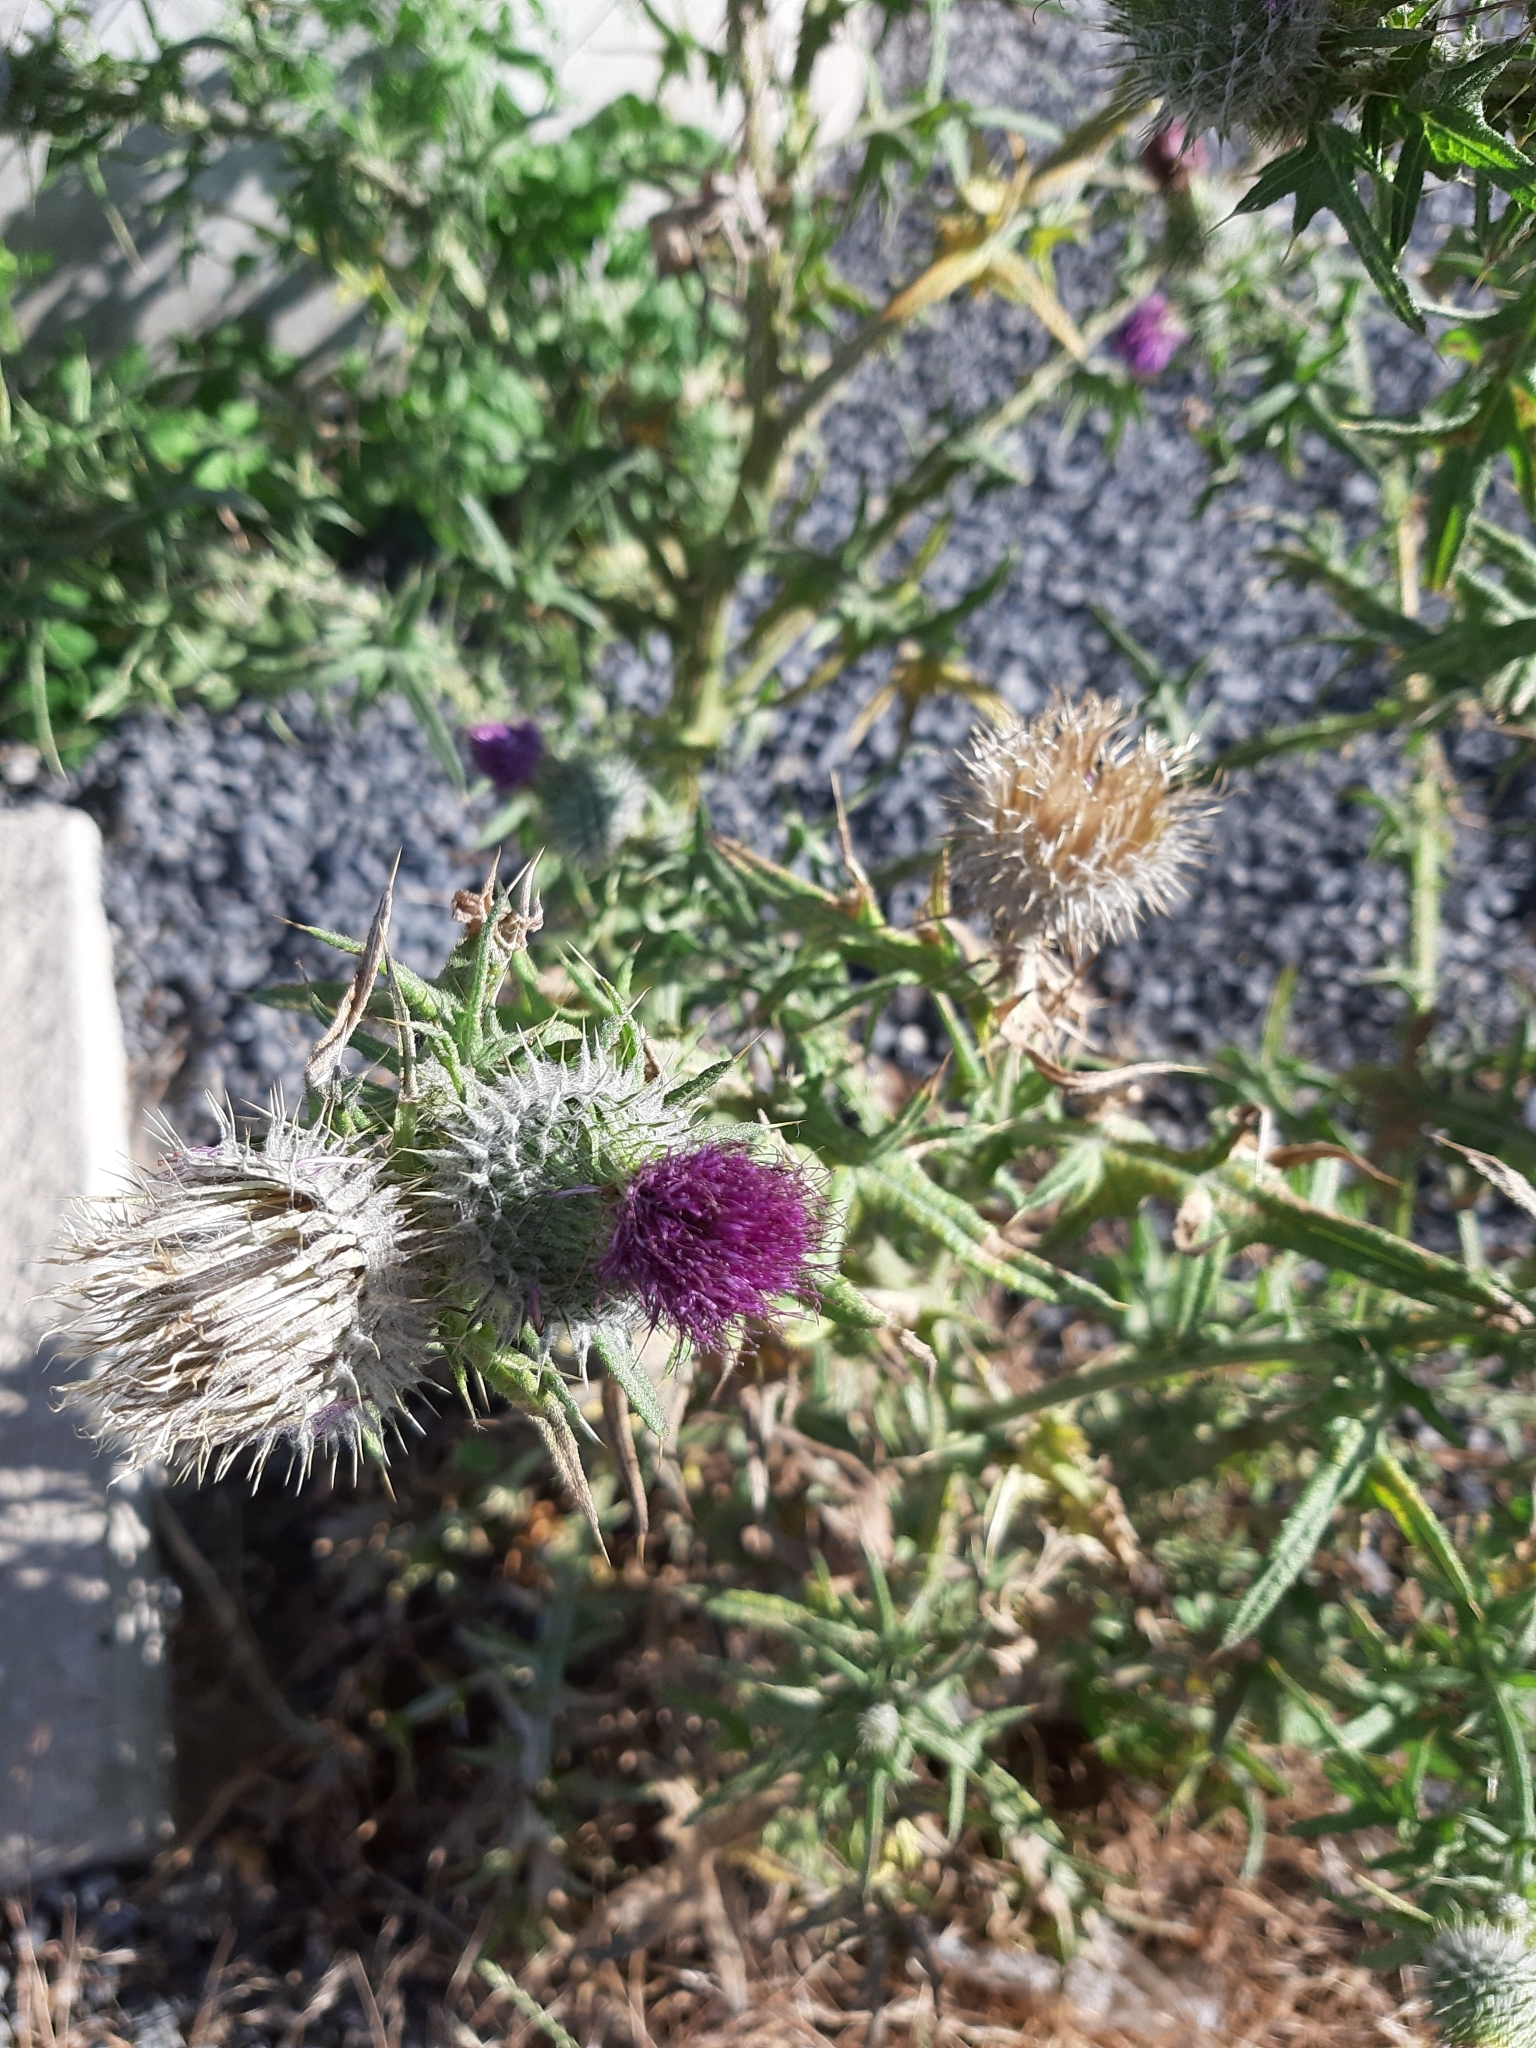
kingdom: Plantae
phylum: Tracheophyta
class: Magnoliopsida
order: Asterales
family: Asteraceae
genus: Cirsium
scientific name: Cirsium vulgare
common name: Bull thistle
